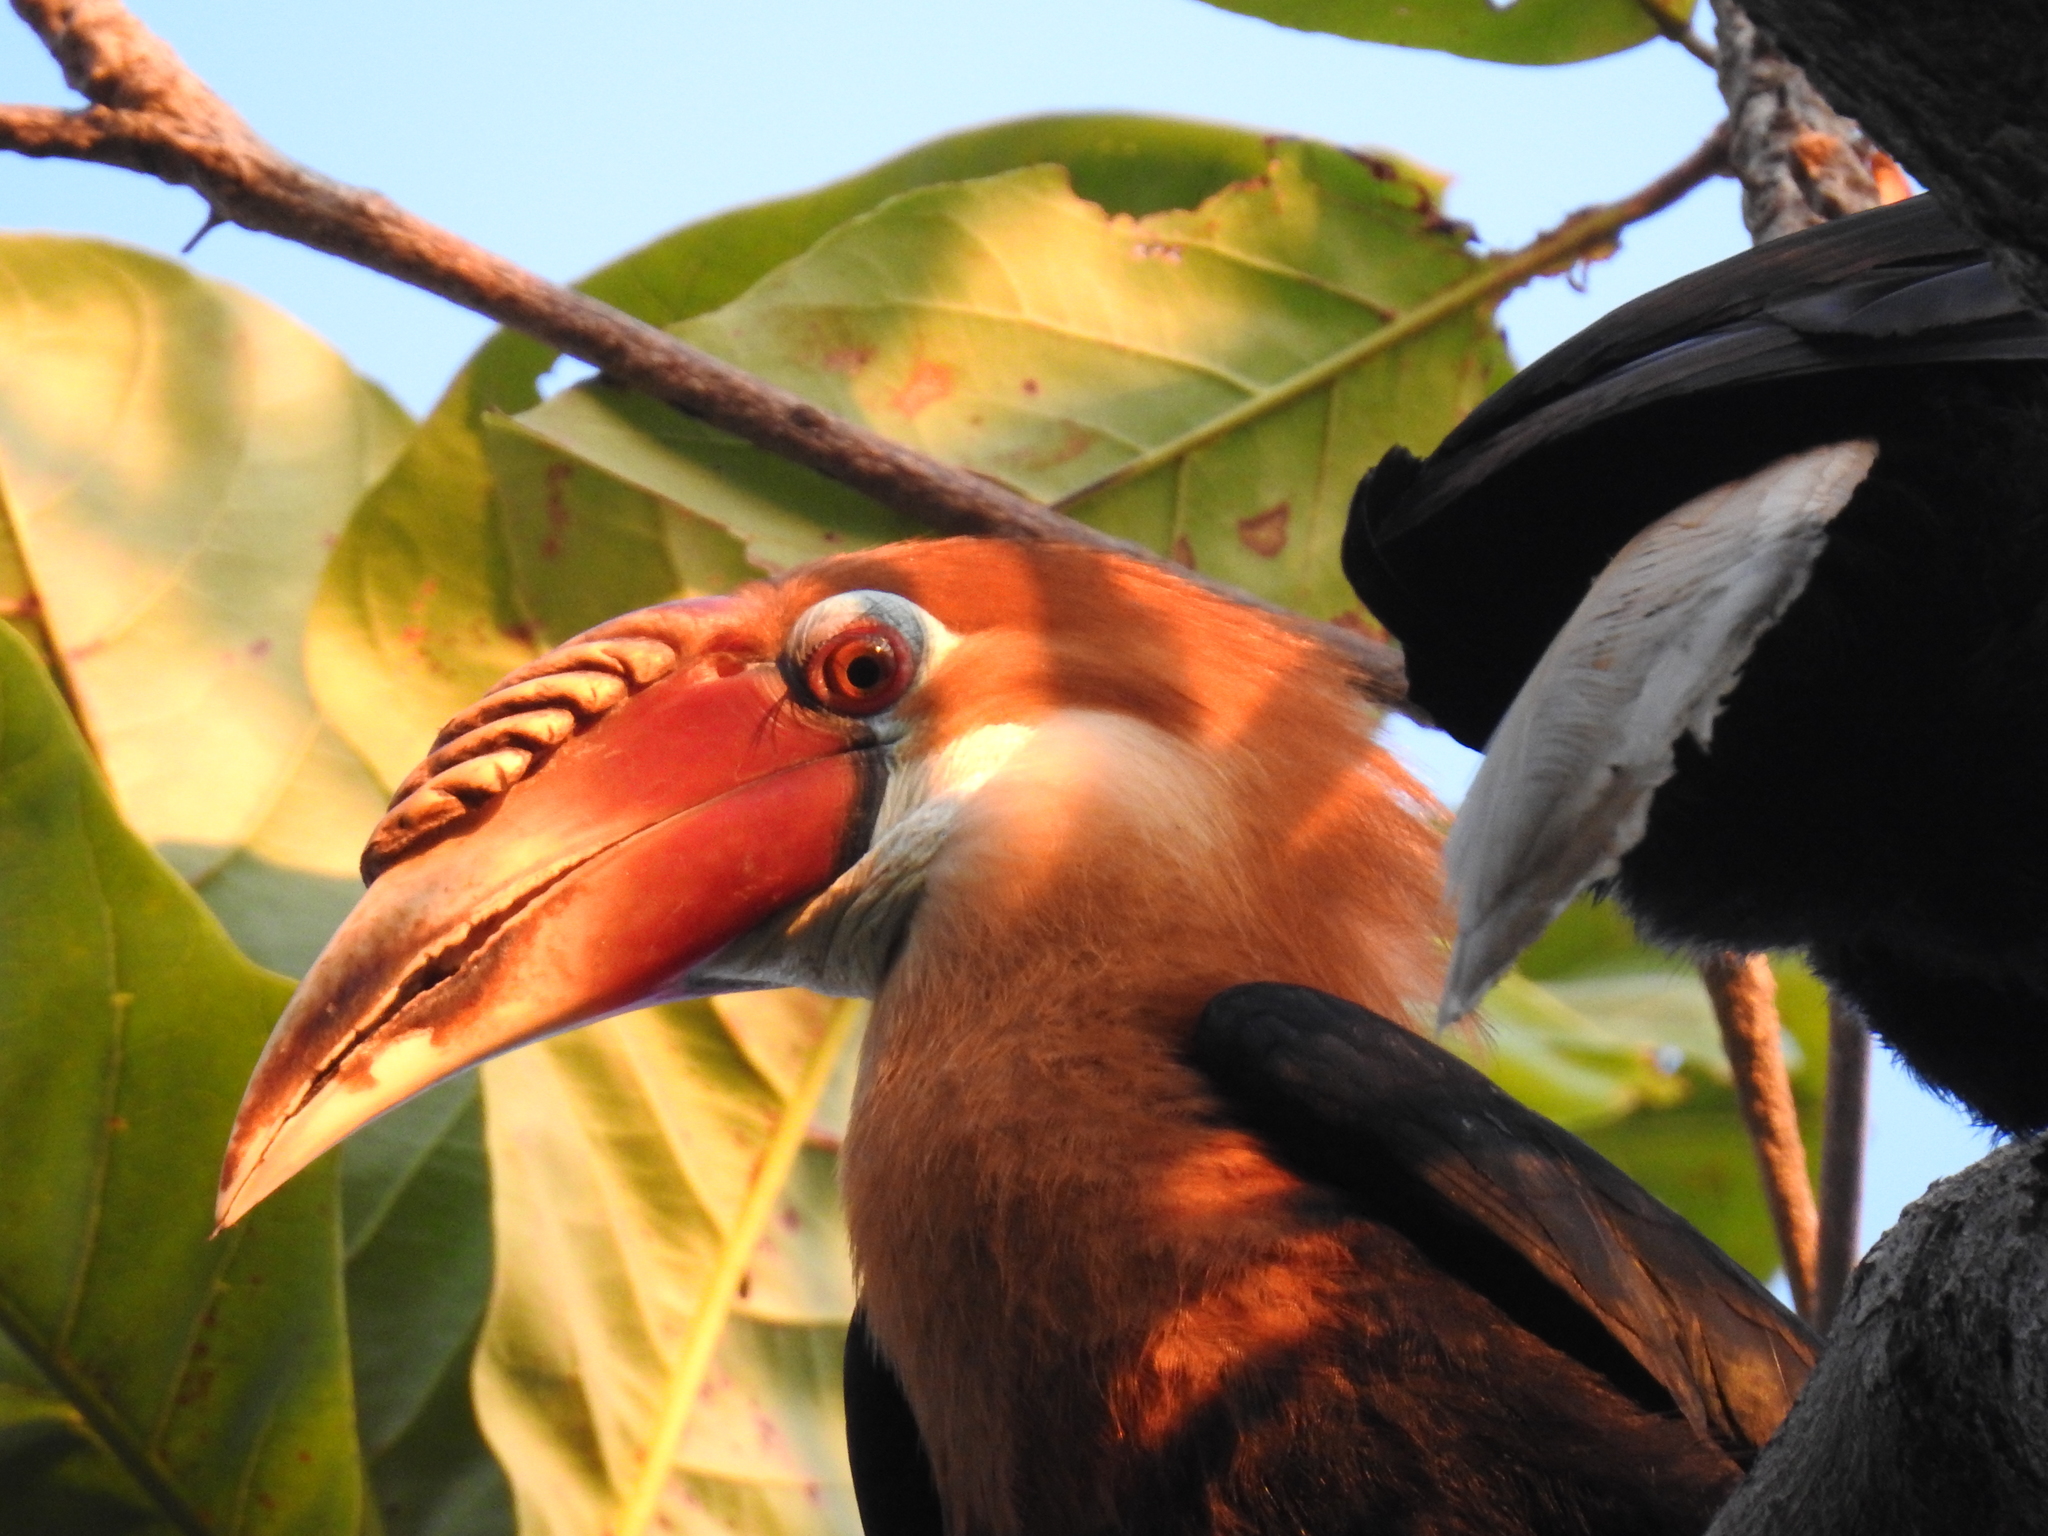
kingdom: Animalia
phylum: Chordata
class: Aves
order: Bucerotiformes
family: Bucerotidae
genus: Rhyticeros
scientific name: Rhyticeros narcondami
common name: Narcondam hornbill
